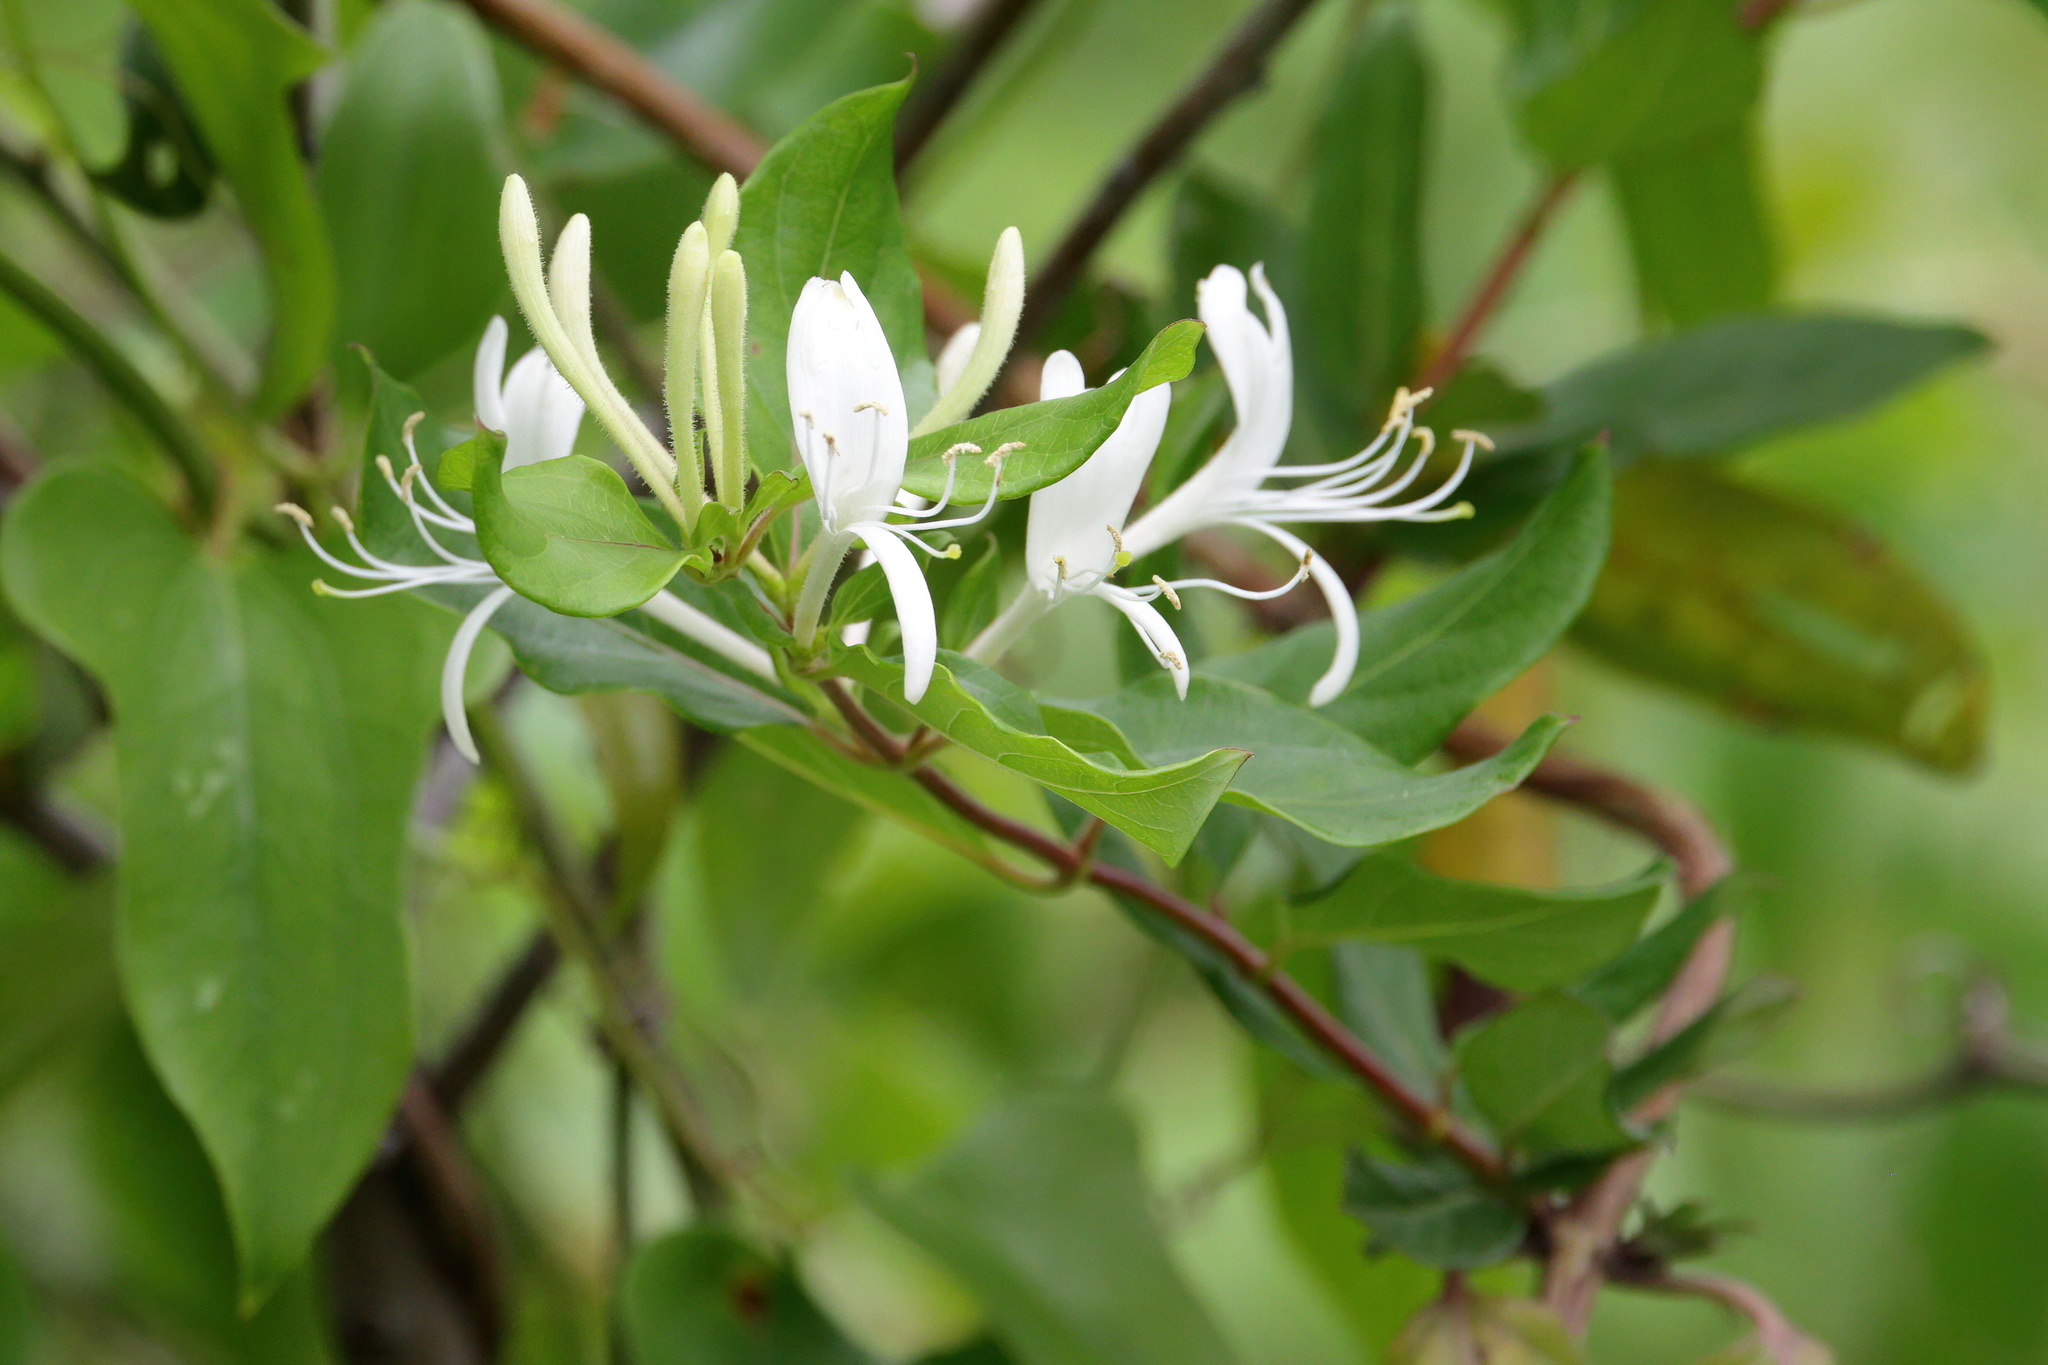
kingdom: Plantae
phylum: Tracheophyta
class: Magnoliopsida
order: Dipsacales
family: Caprifoliaceae
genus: Lonicera
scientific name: Lonicera japonica
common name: Japanese honeysuckle
